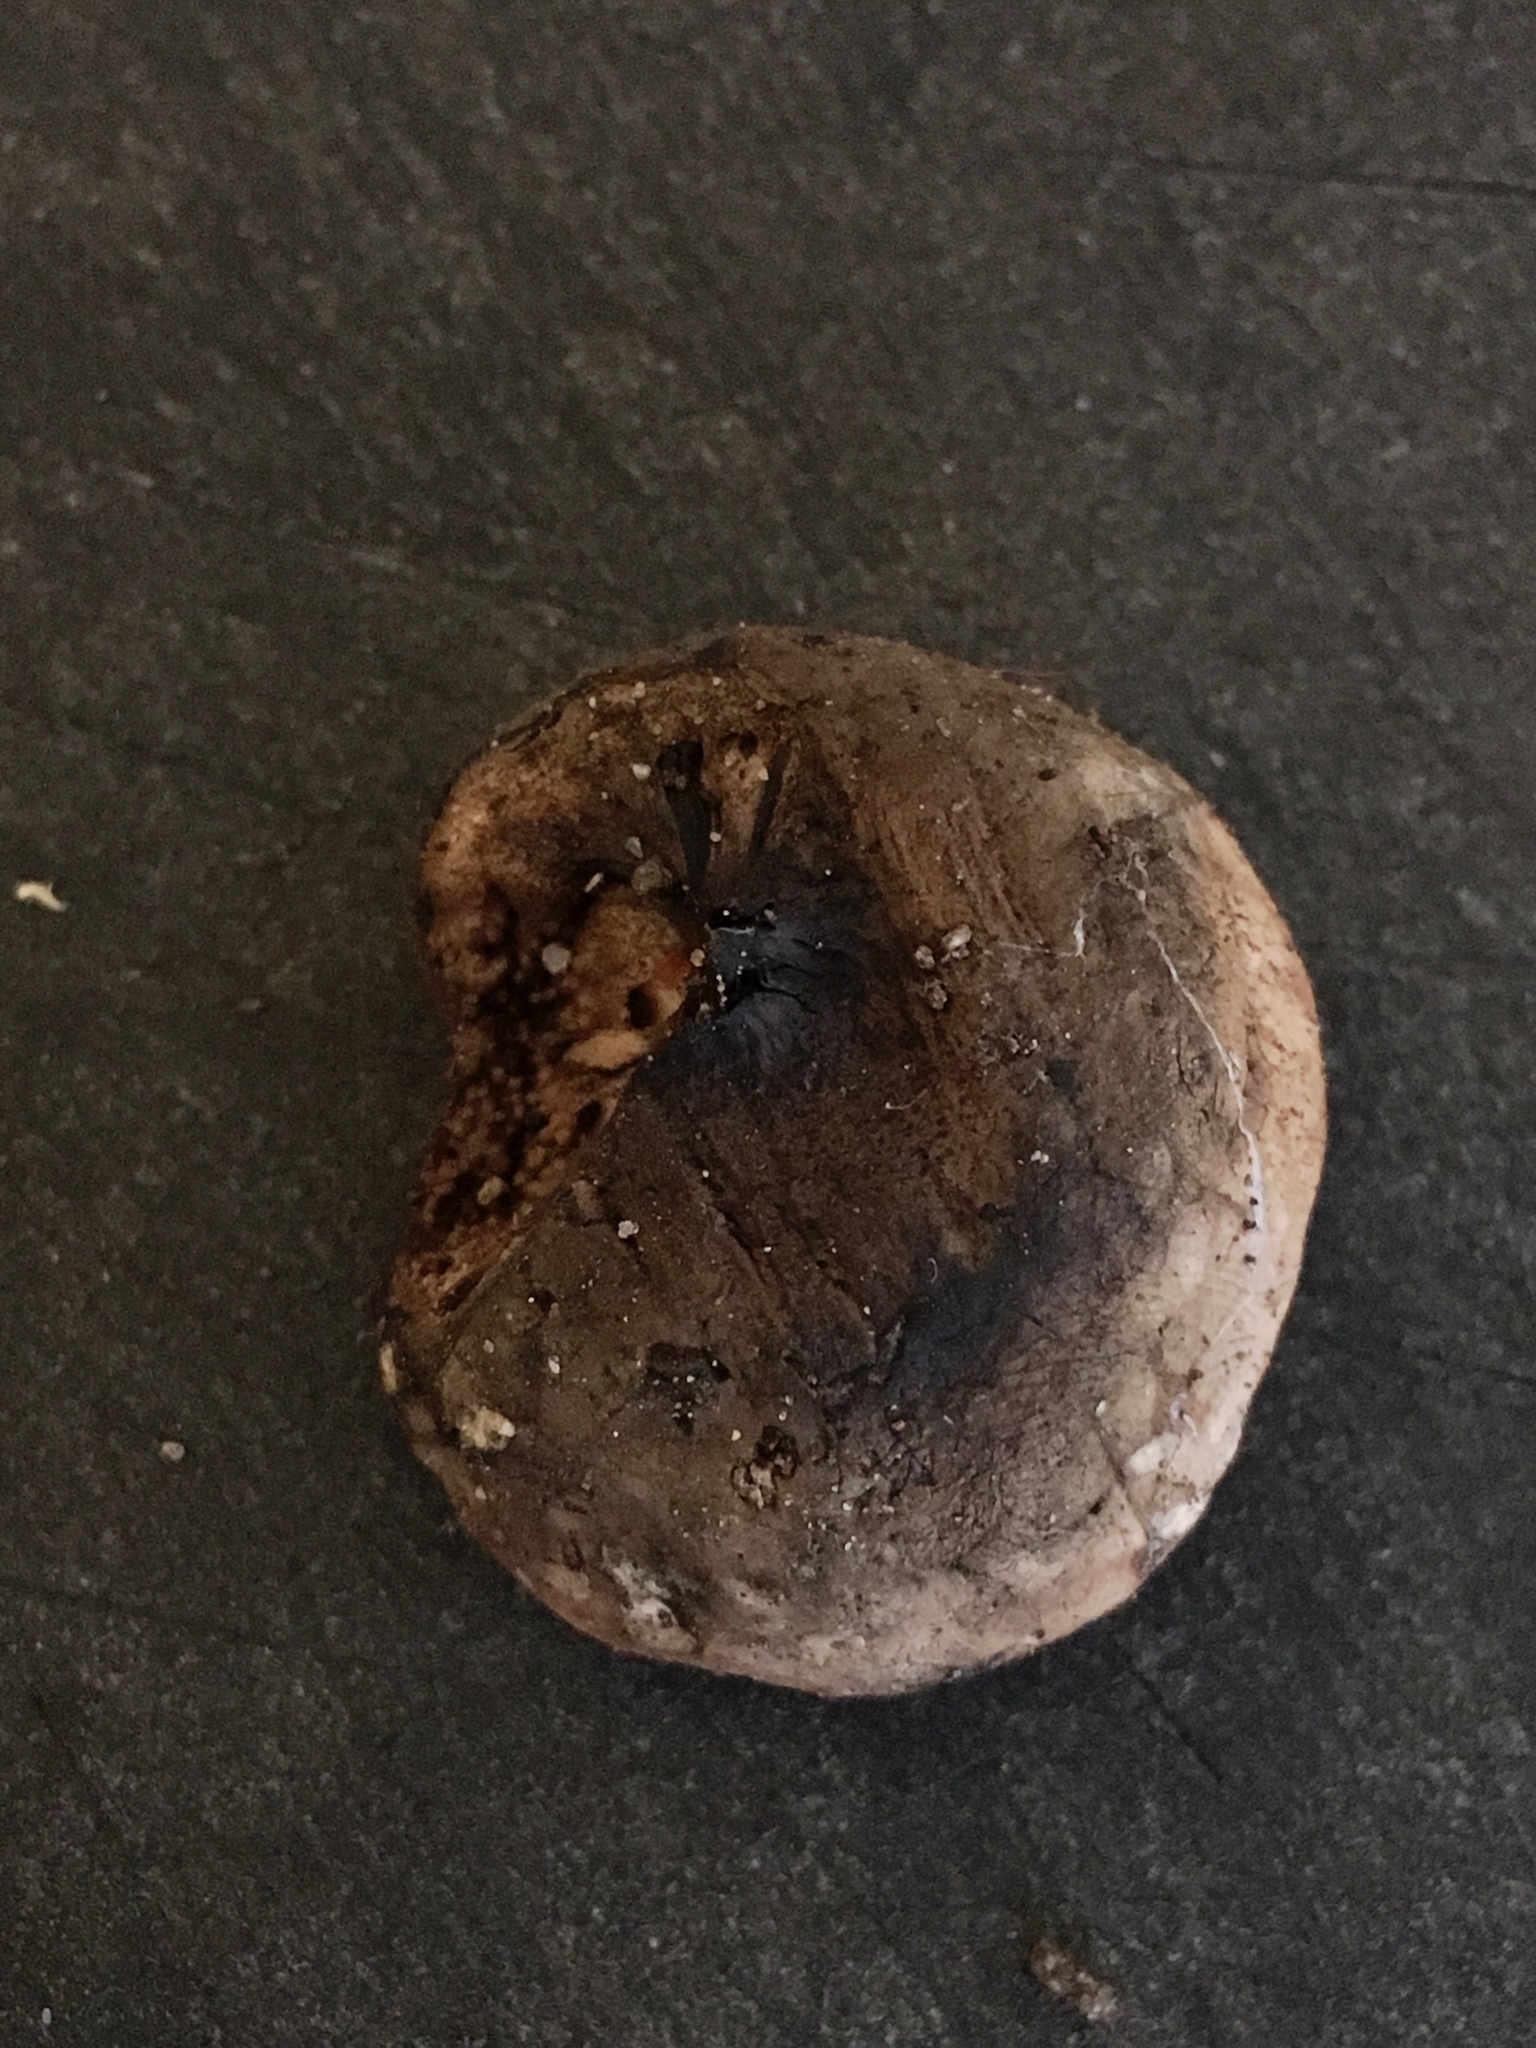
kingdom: Fungi
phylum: Ascomycota
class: Sordariomycetes
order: Boliniales
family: Boliniaceae
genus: Camarops
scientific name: Camarops petersii
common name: Dog's nose fungus
